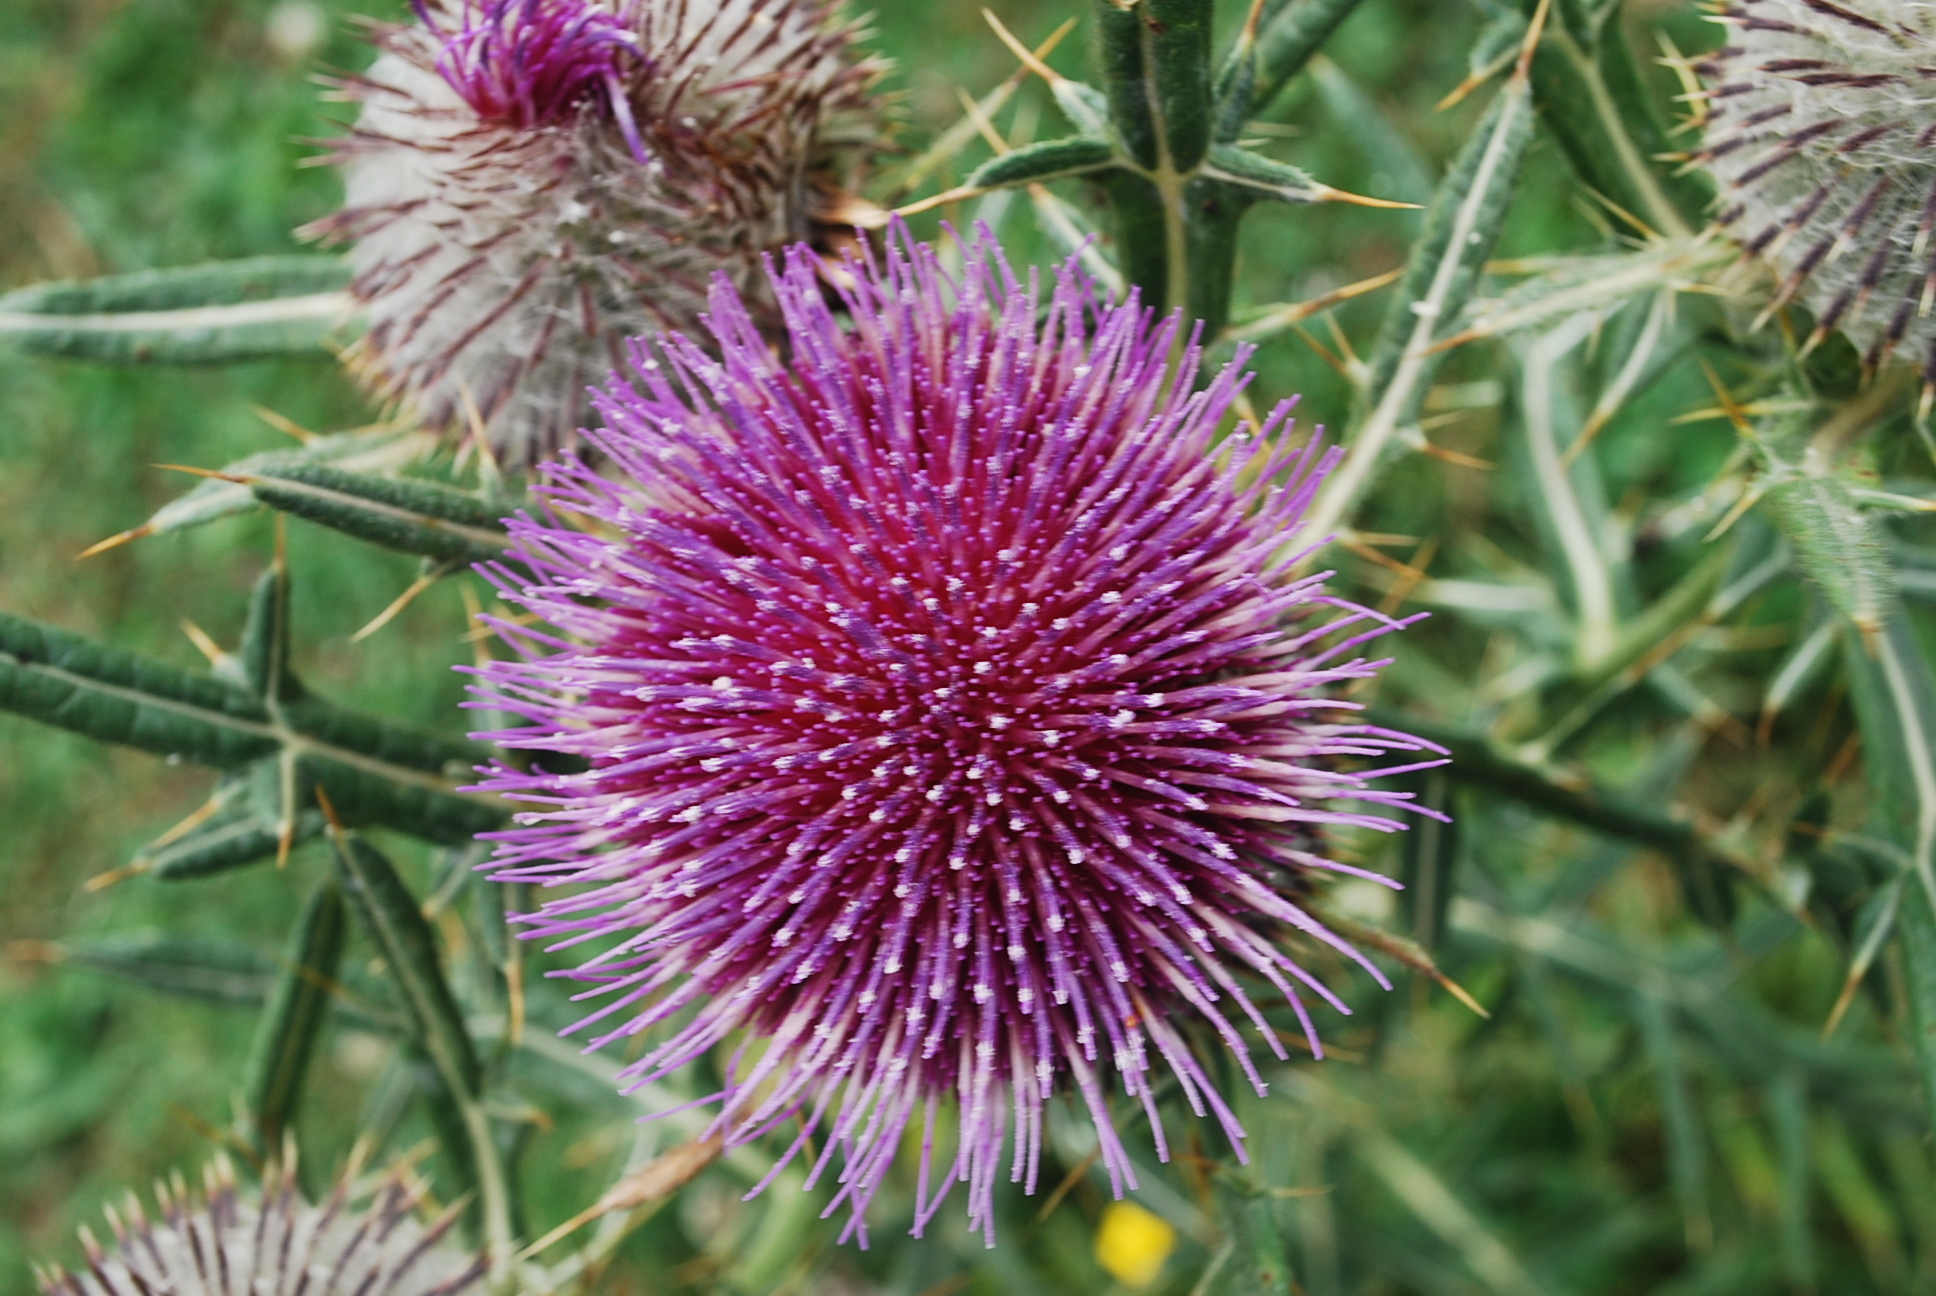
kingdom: Plantae
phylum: Tracheophyta
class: Magnoliopsida
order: Asterales
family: Asteraceae
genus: Lophiolepis
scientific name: Lophiolepis eriophora
